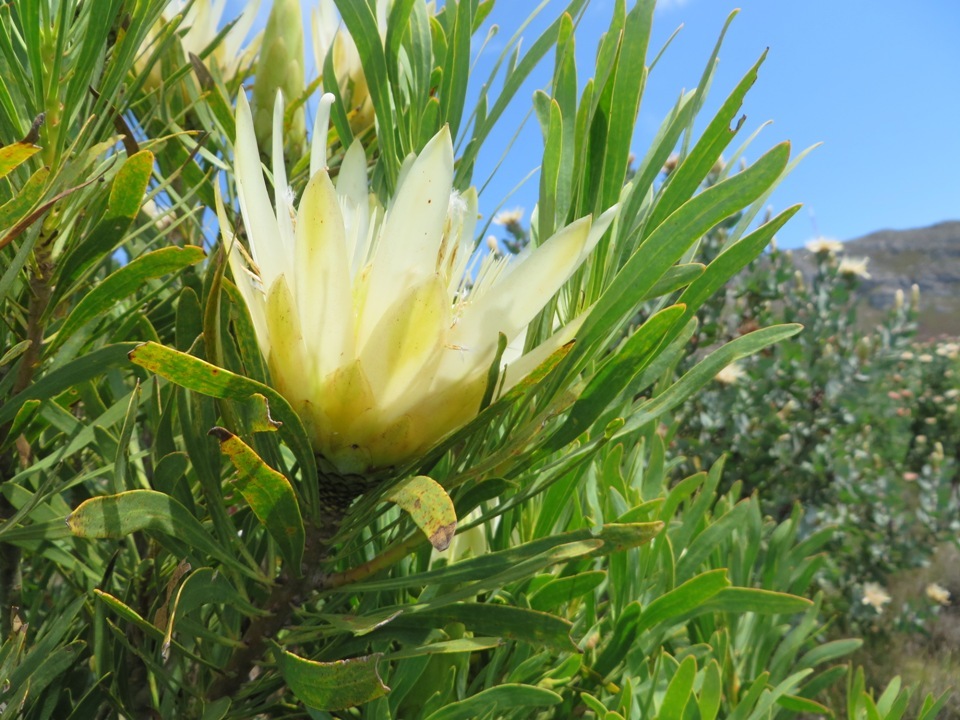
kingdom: Plantae
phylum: Tracheophyta
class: Magnoliopsida
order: Proteales
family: Proteaceae
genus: Protea
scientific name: Protea repens
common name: Sugarbush
